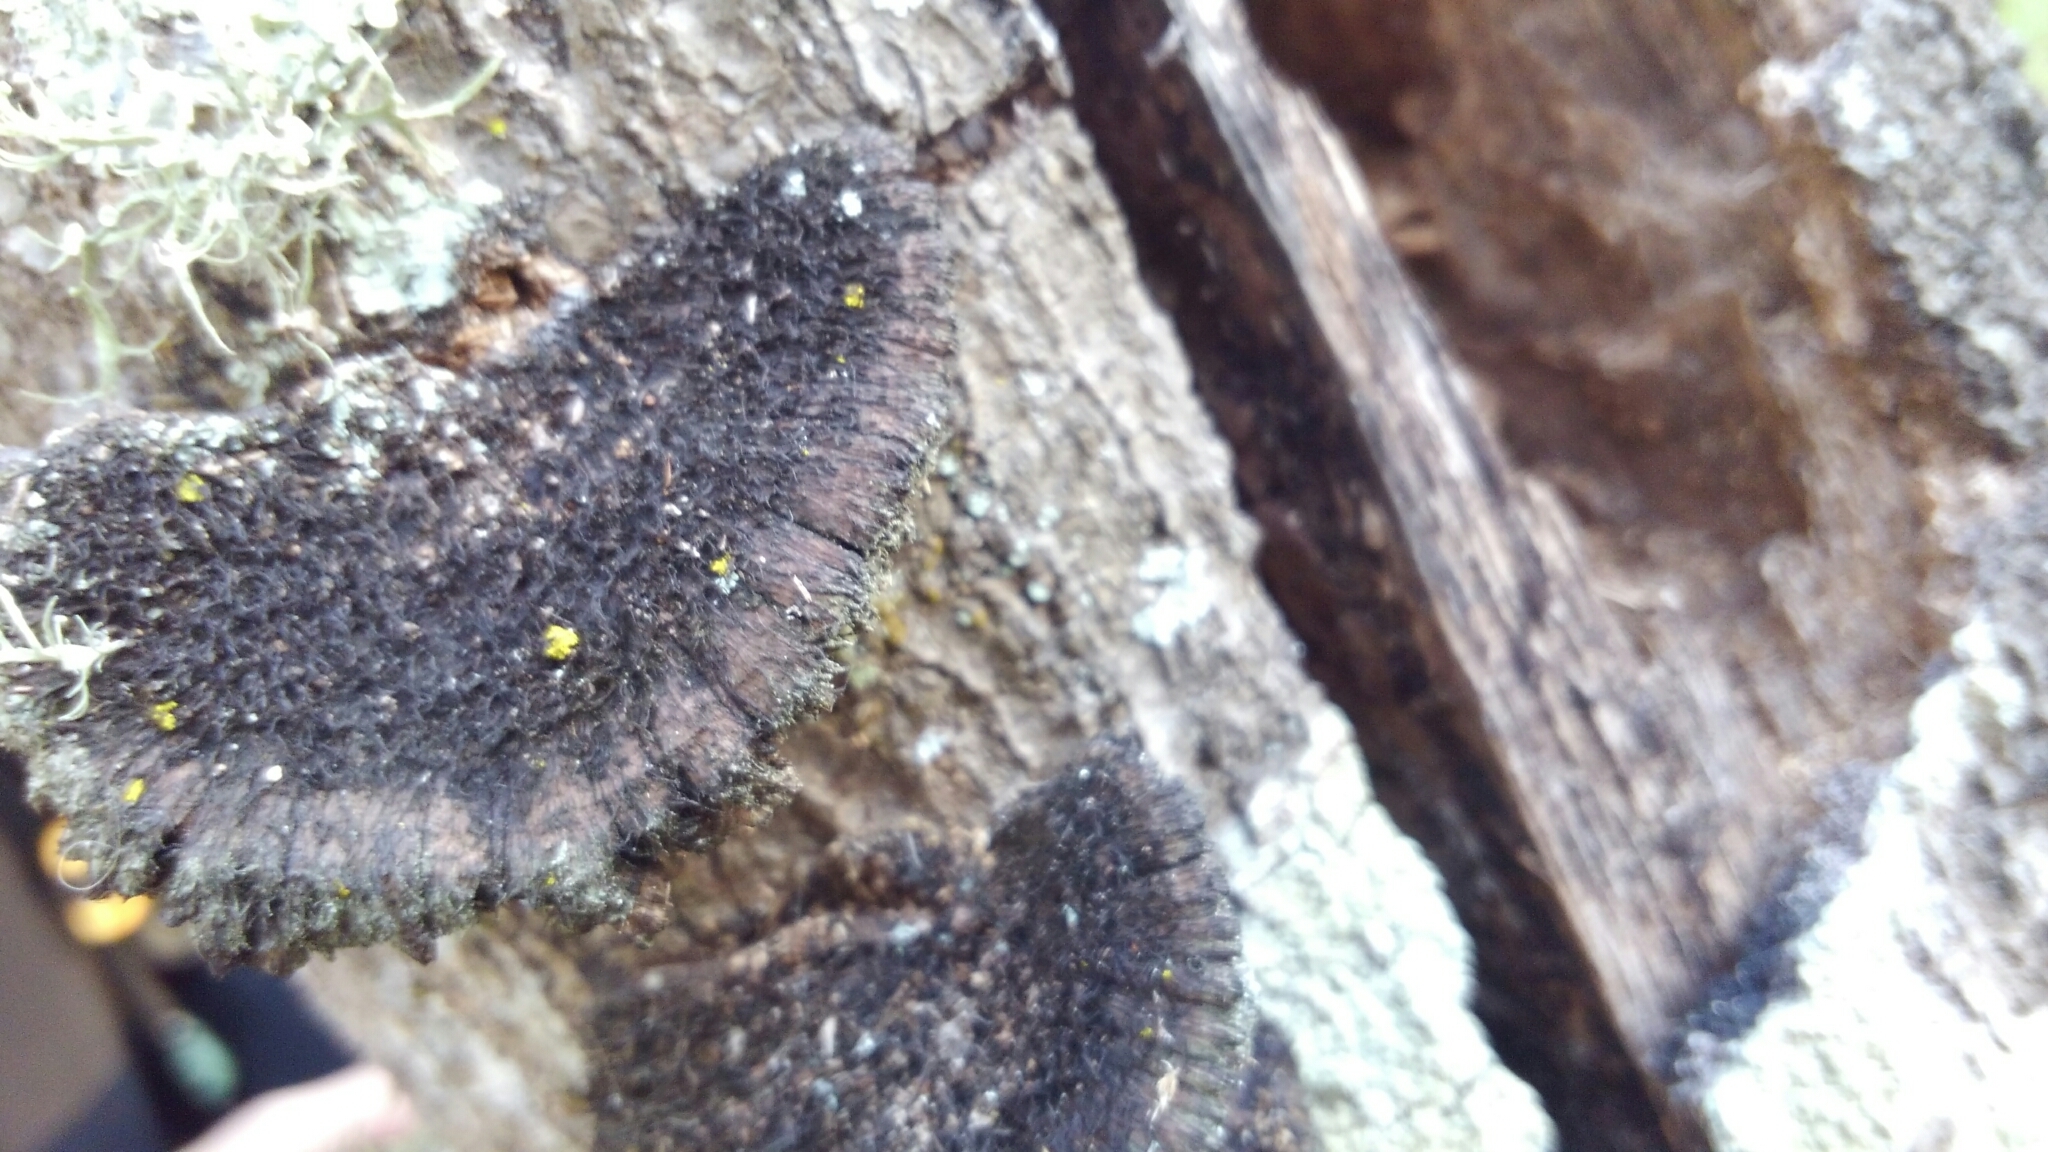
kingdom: Fungi
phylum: Basidiomycota
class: Agaricomycetes
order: Polyporales
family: Cerrenaceae
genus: Cerrena
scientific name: Cerrena hydnoides
